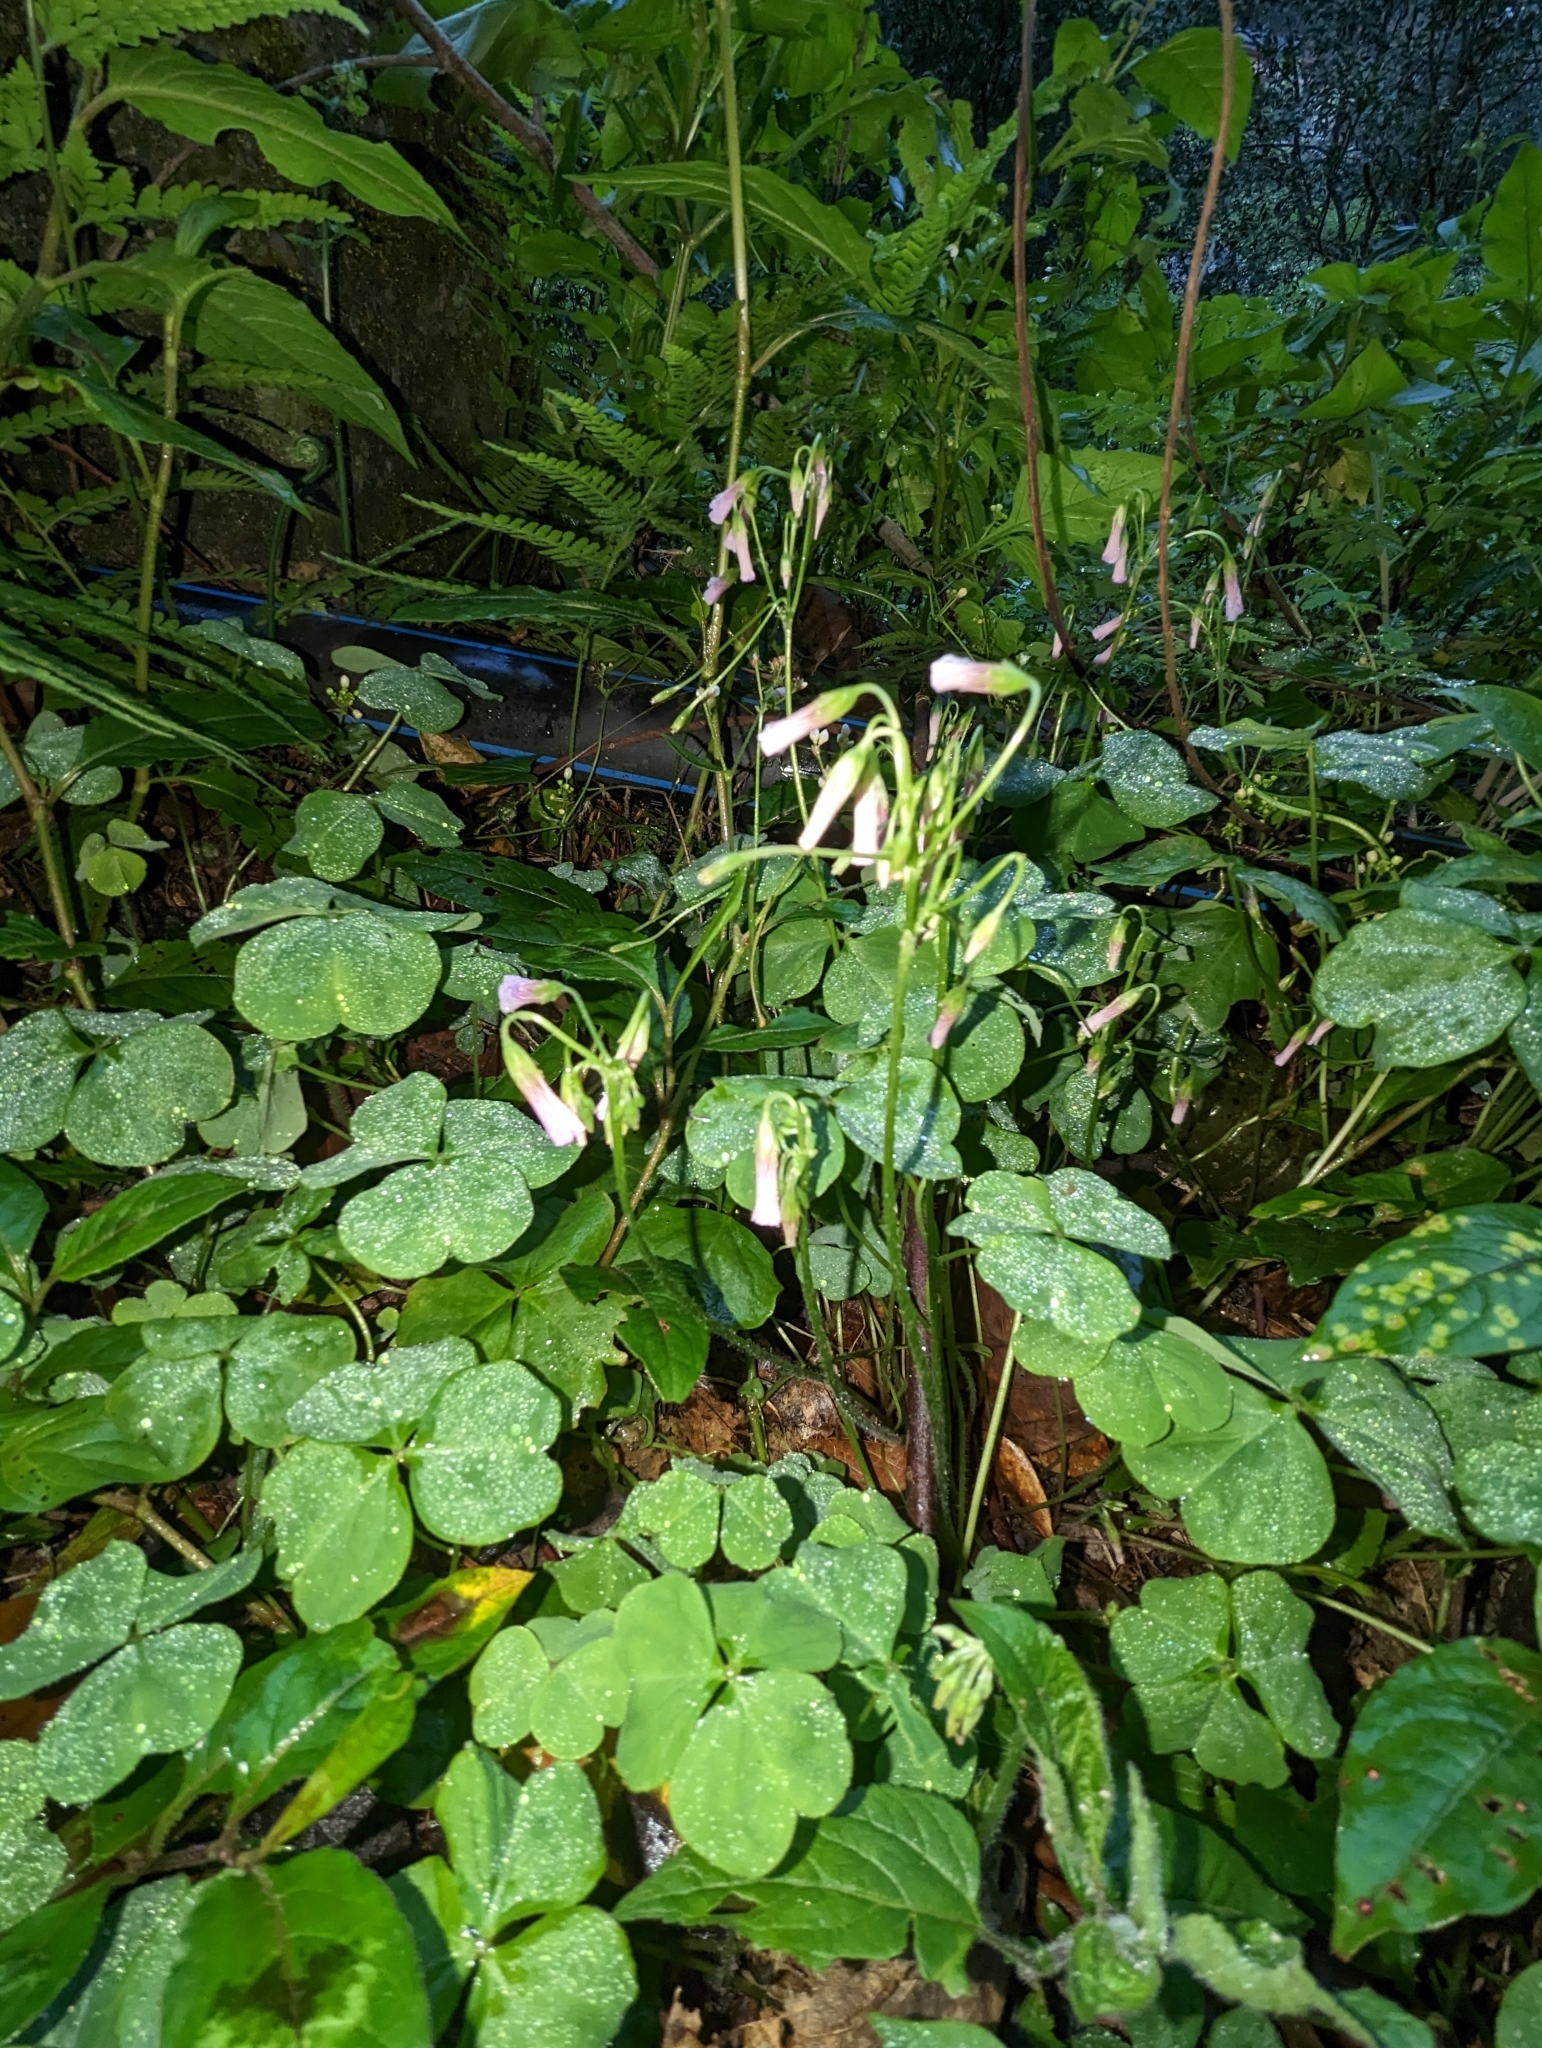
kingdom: Plantae
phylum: Tracheophyta
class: Magnoliopsida
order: Oxalidales
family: Oxalidaceae
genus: Oxalis
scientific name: Oxalis debilis
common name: Large-flowered pink-sorrel
